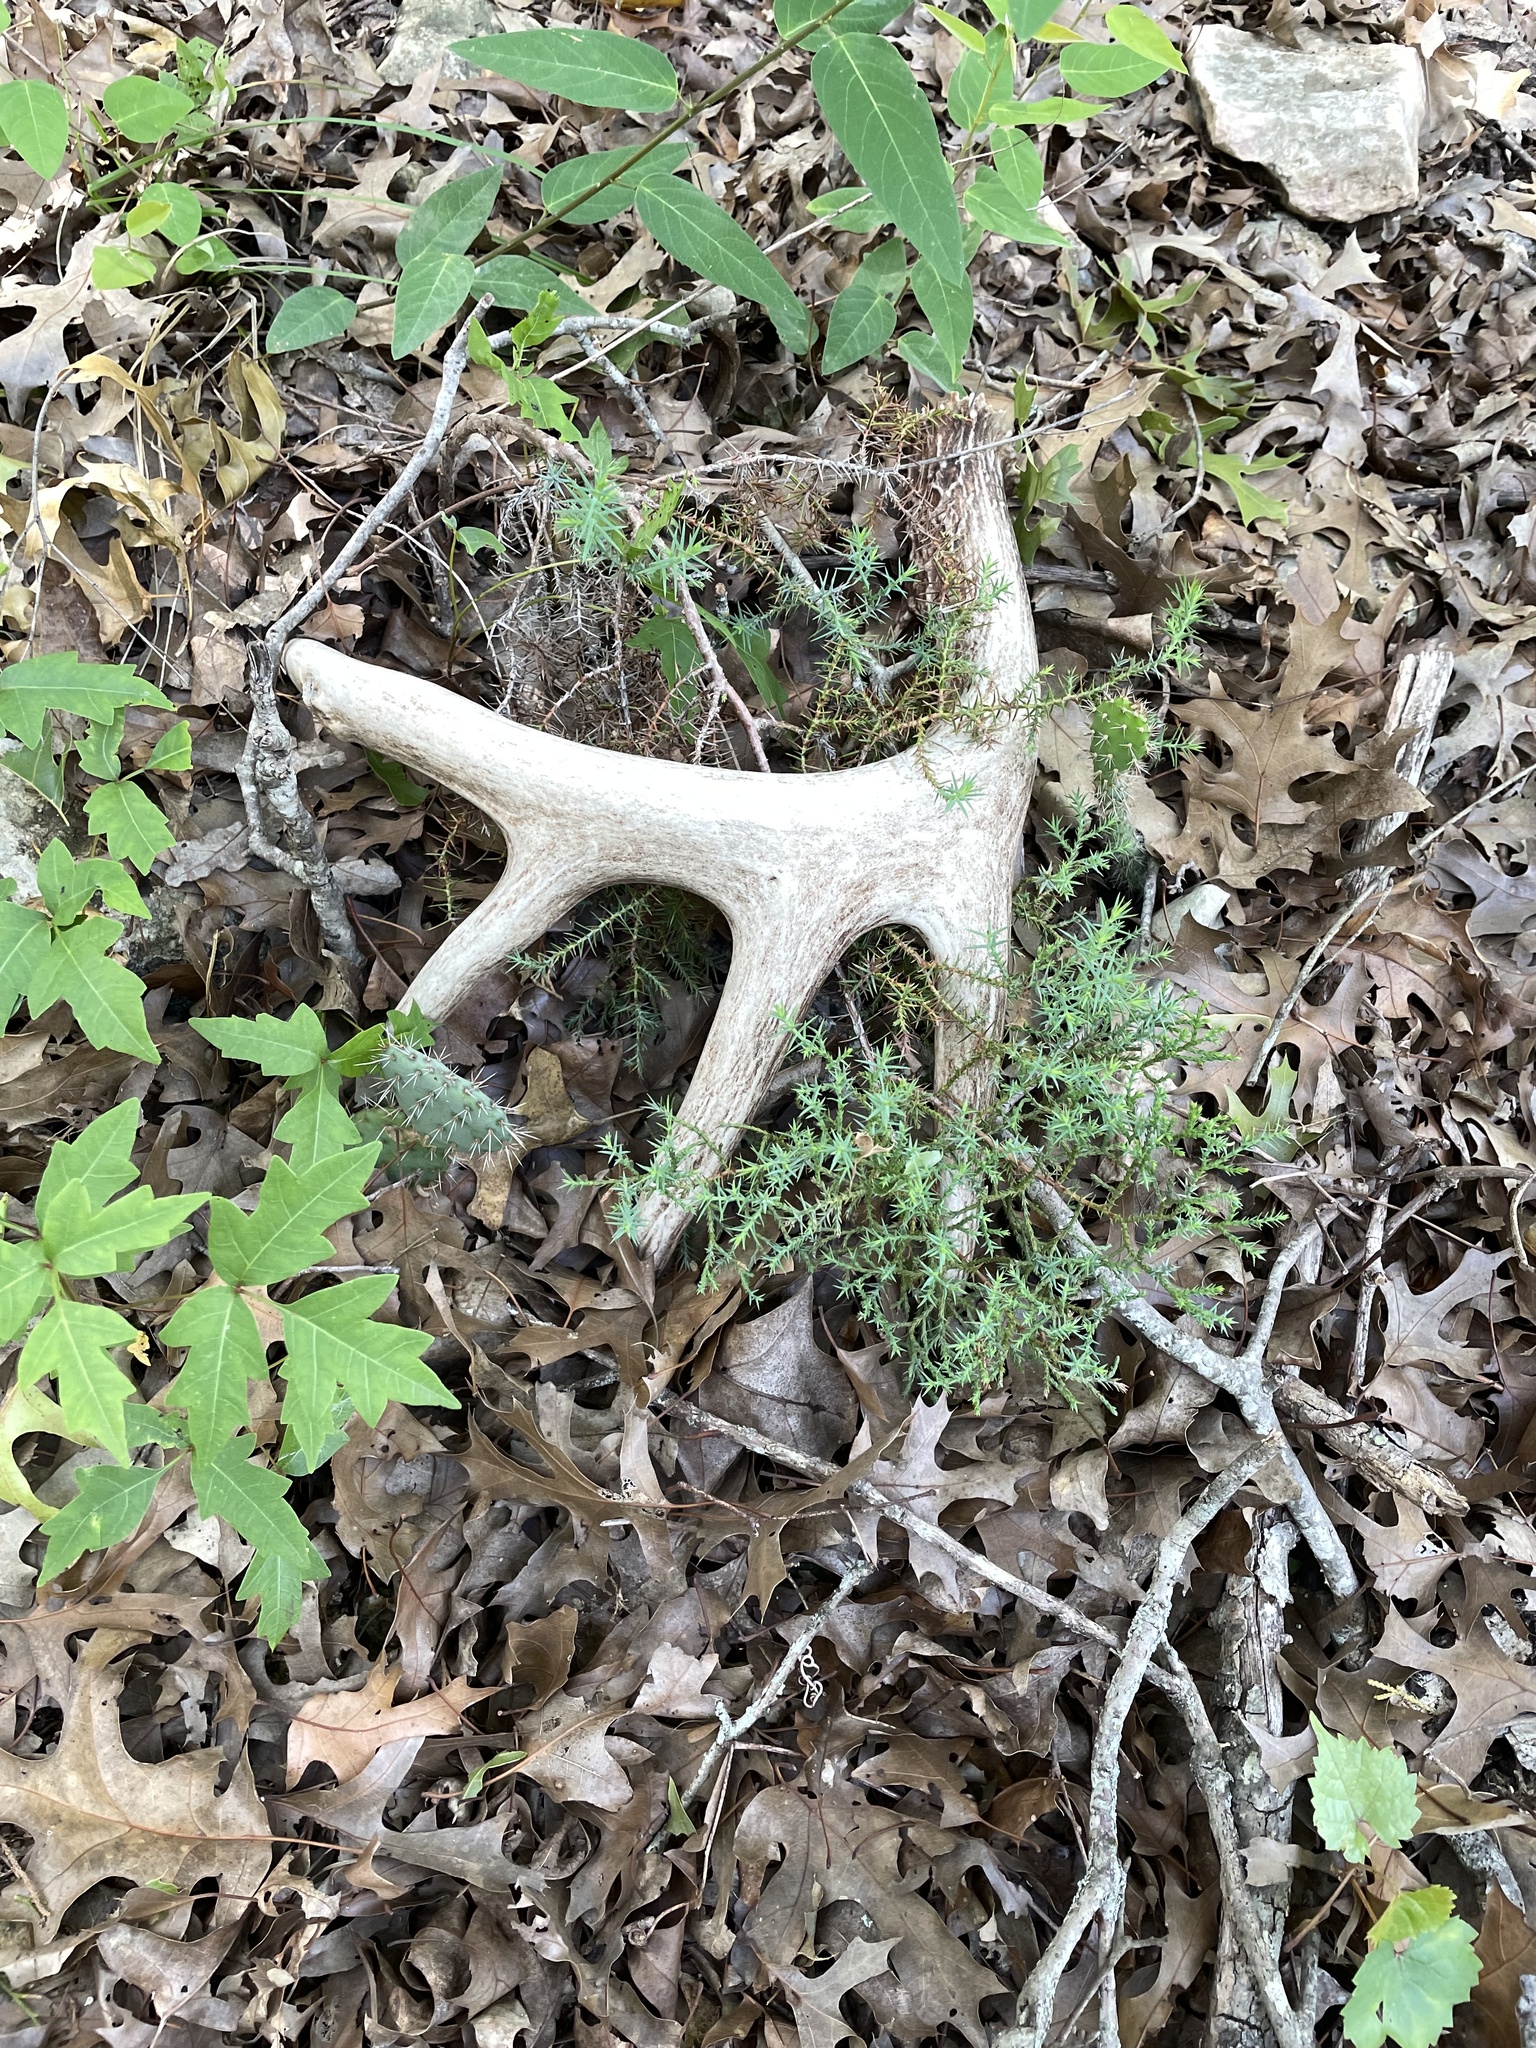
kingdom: Animalia
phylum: Chordata
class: Mammalia
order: Artiodactyla
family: Cervidae
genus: Odocoileus
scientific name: Odocoileus virginianus
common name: White-tailed deer
